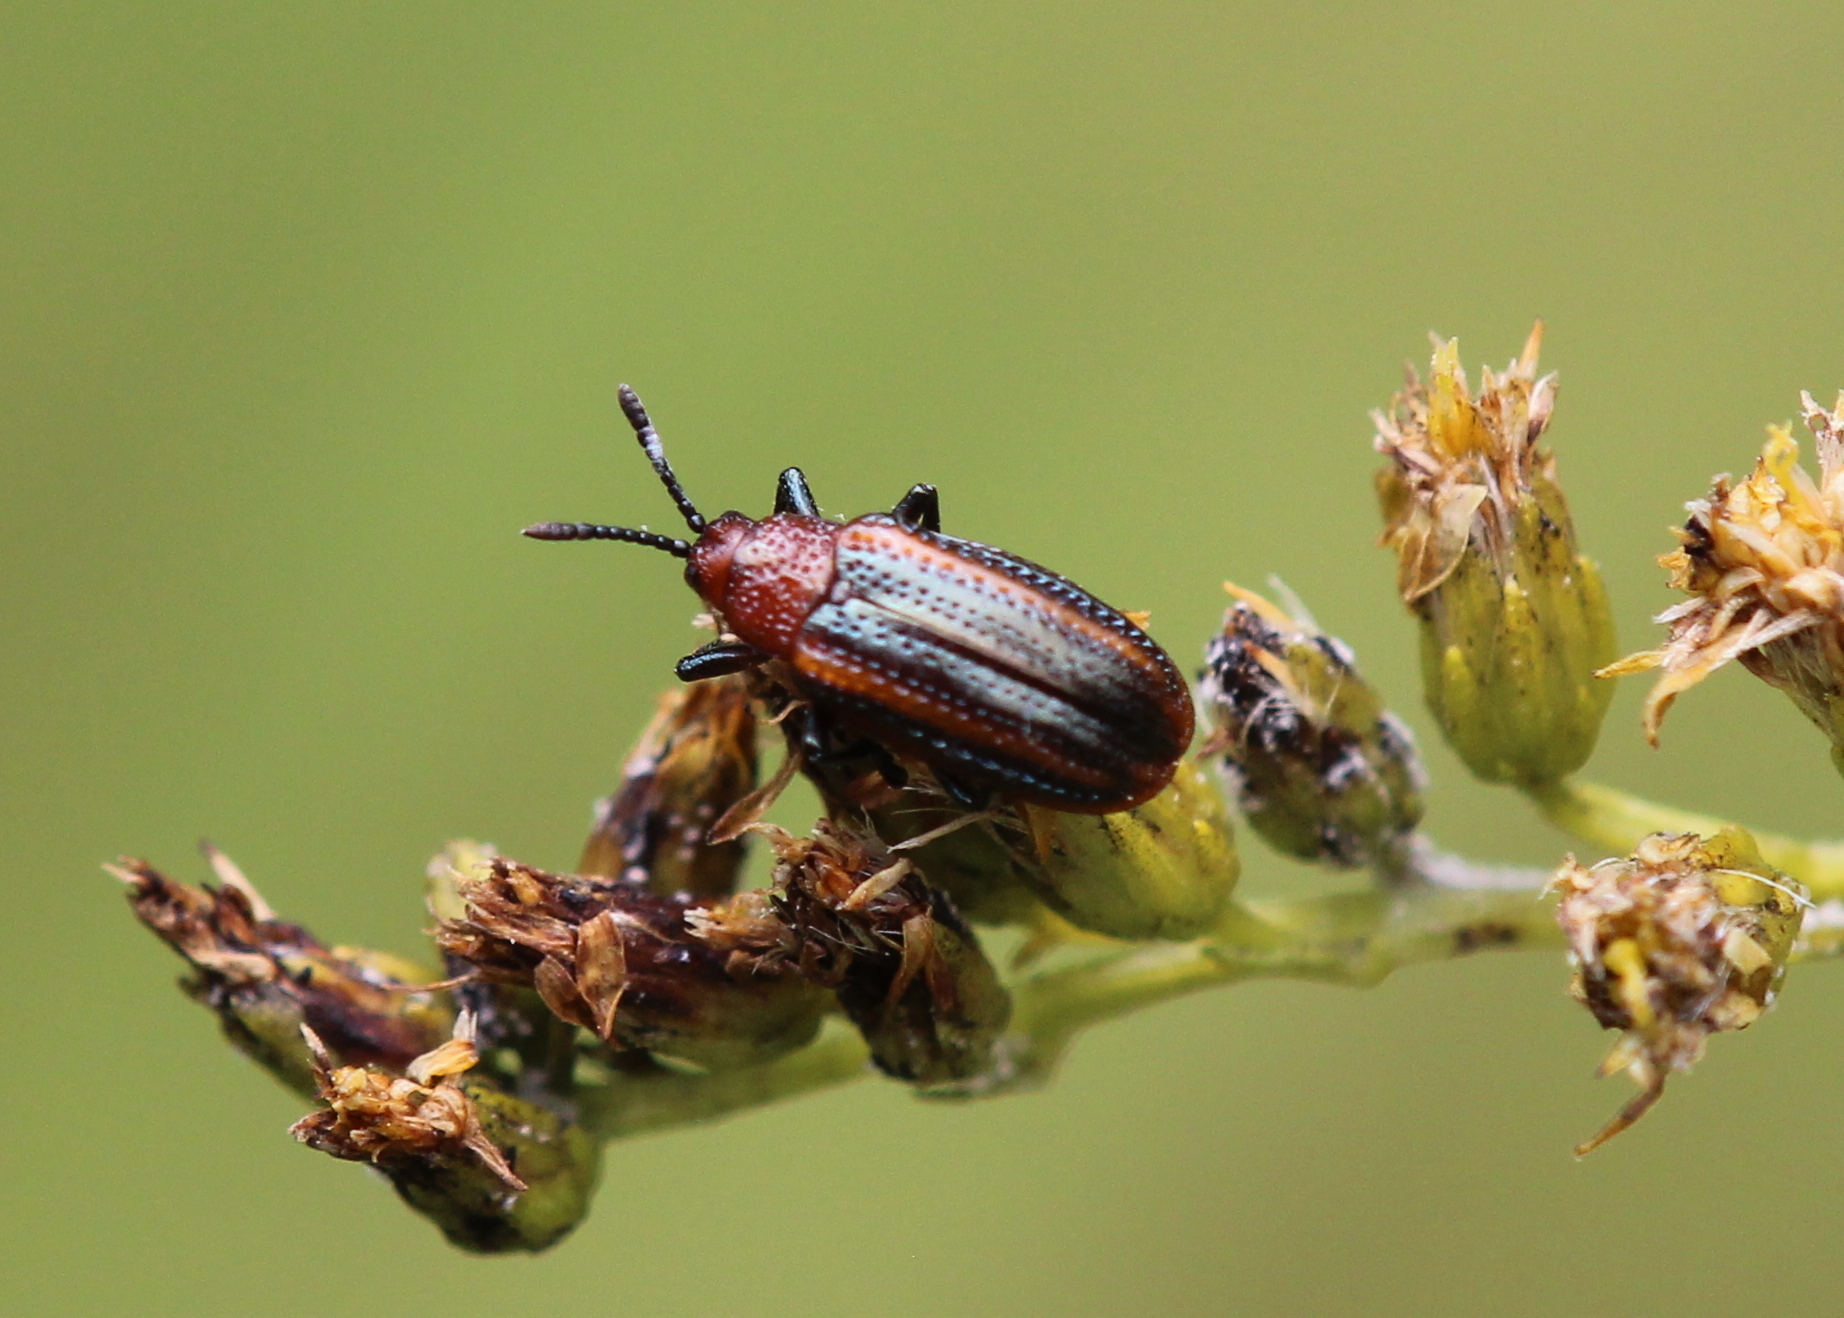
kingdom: Animalia
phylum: Arthropoda
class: Insecta
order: Coleoptera
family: Chrysomelidae
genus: Microrhopala
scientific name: Microrhopala vittata
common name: Goldenrod leaf miner beetle
